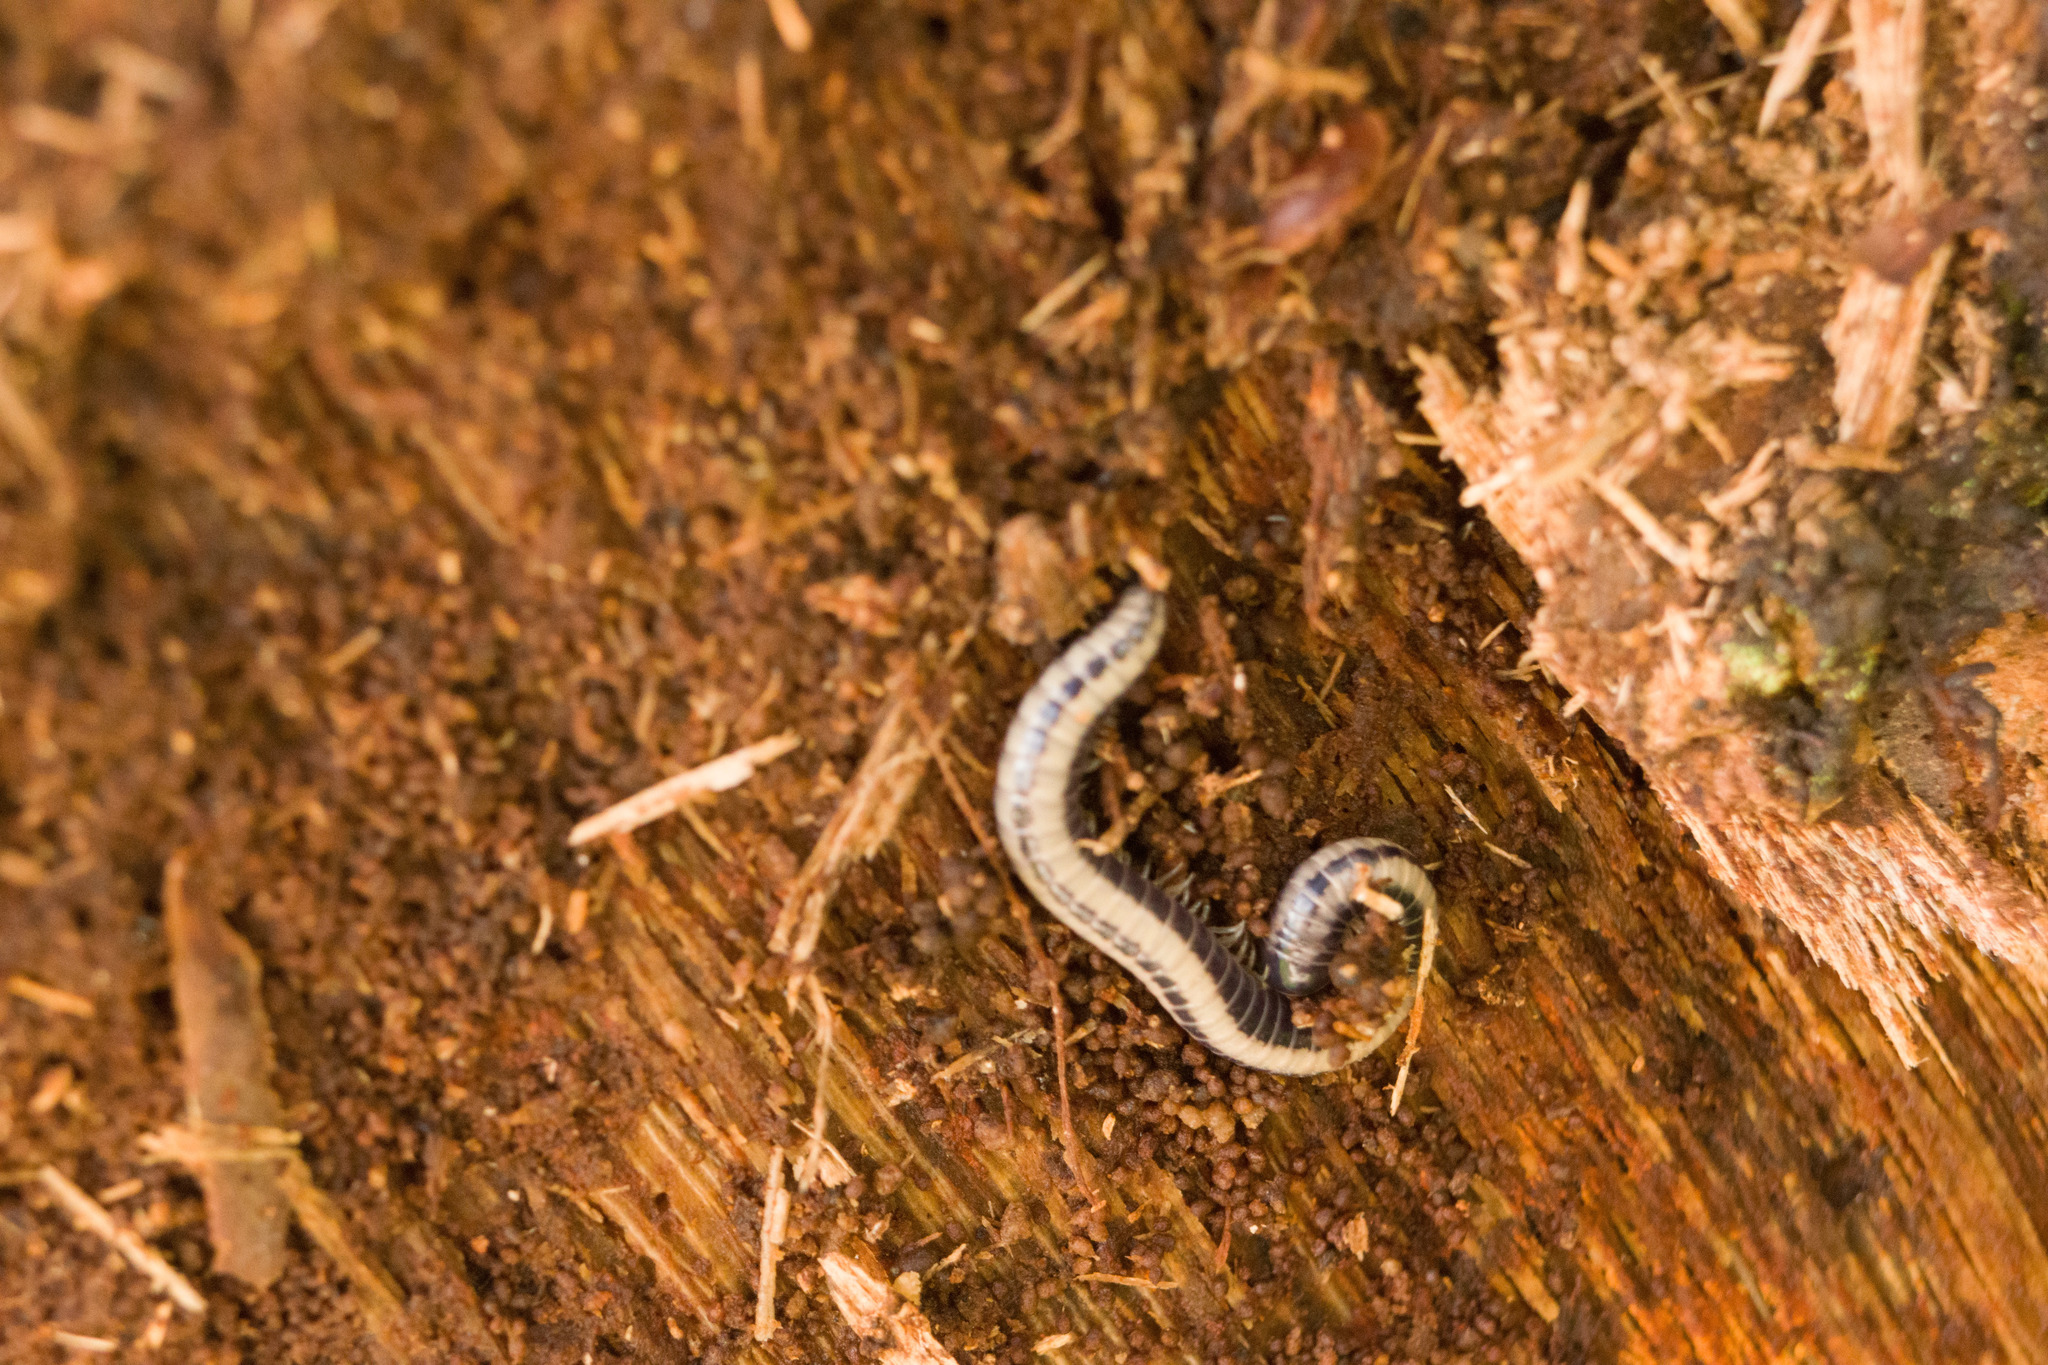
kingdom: Animalia
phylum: Arthropoda
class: Diplopoda
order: Spirobolida
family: Spirobolellidae
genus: Spirobolellus
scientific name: Spirobolellus immigrans
